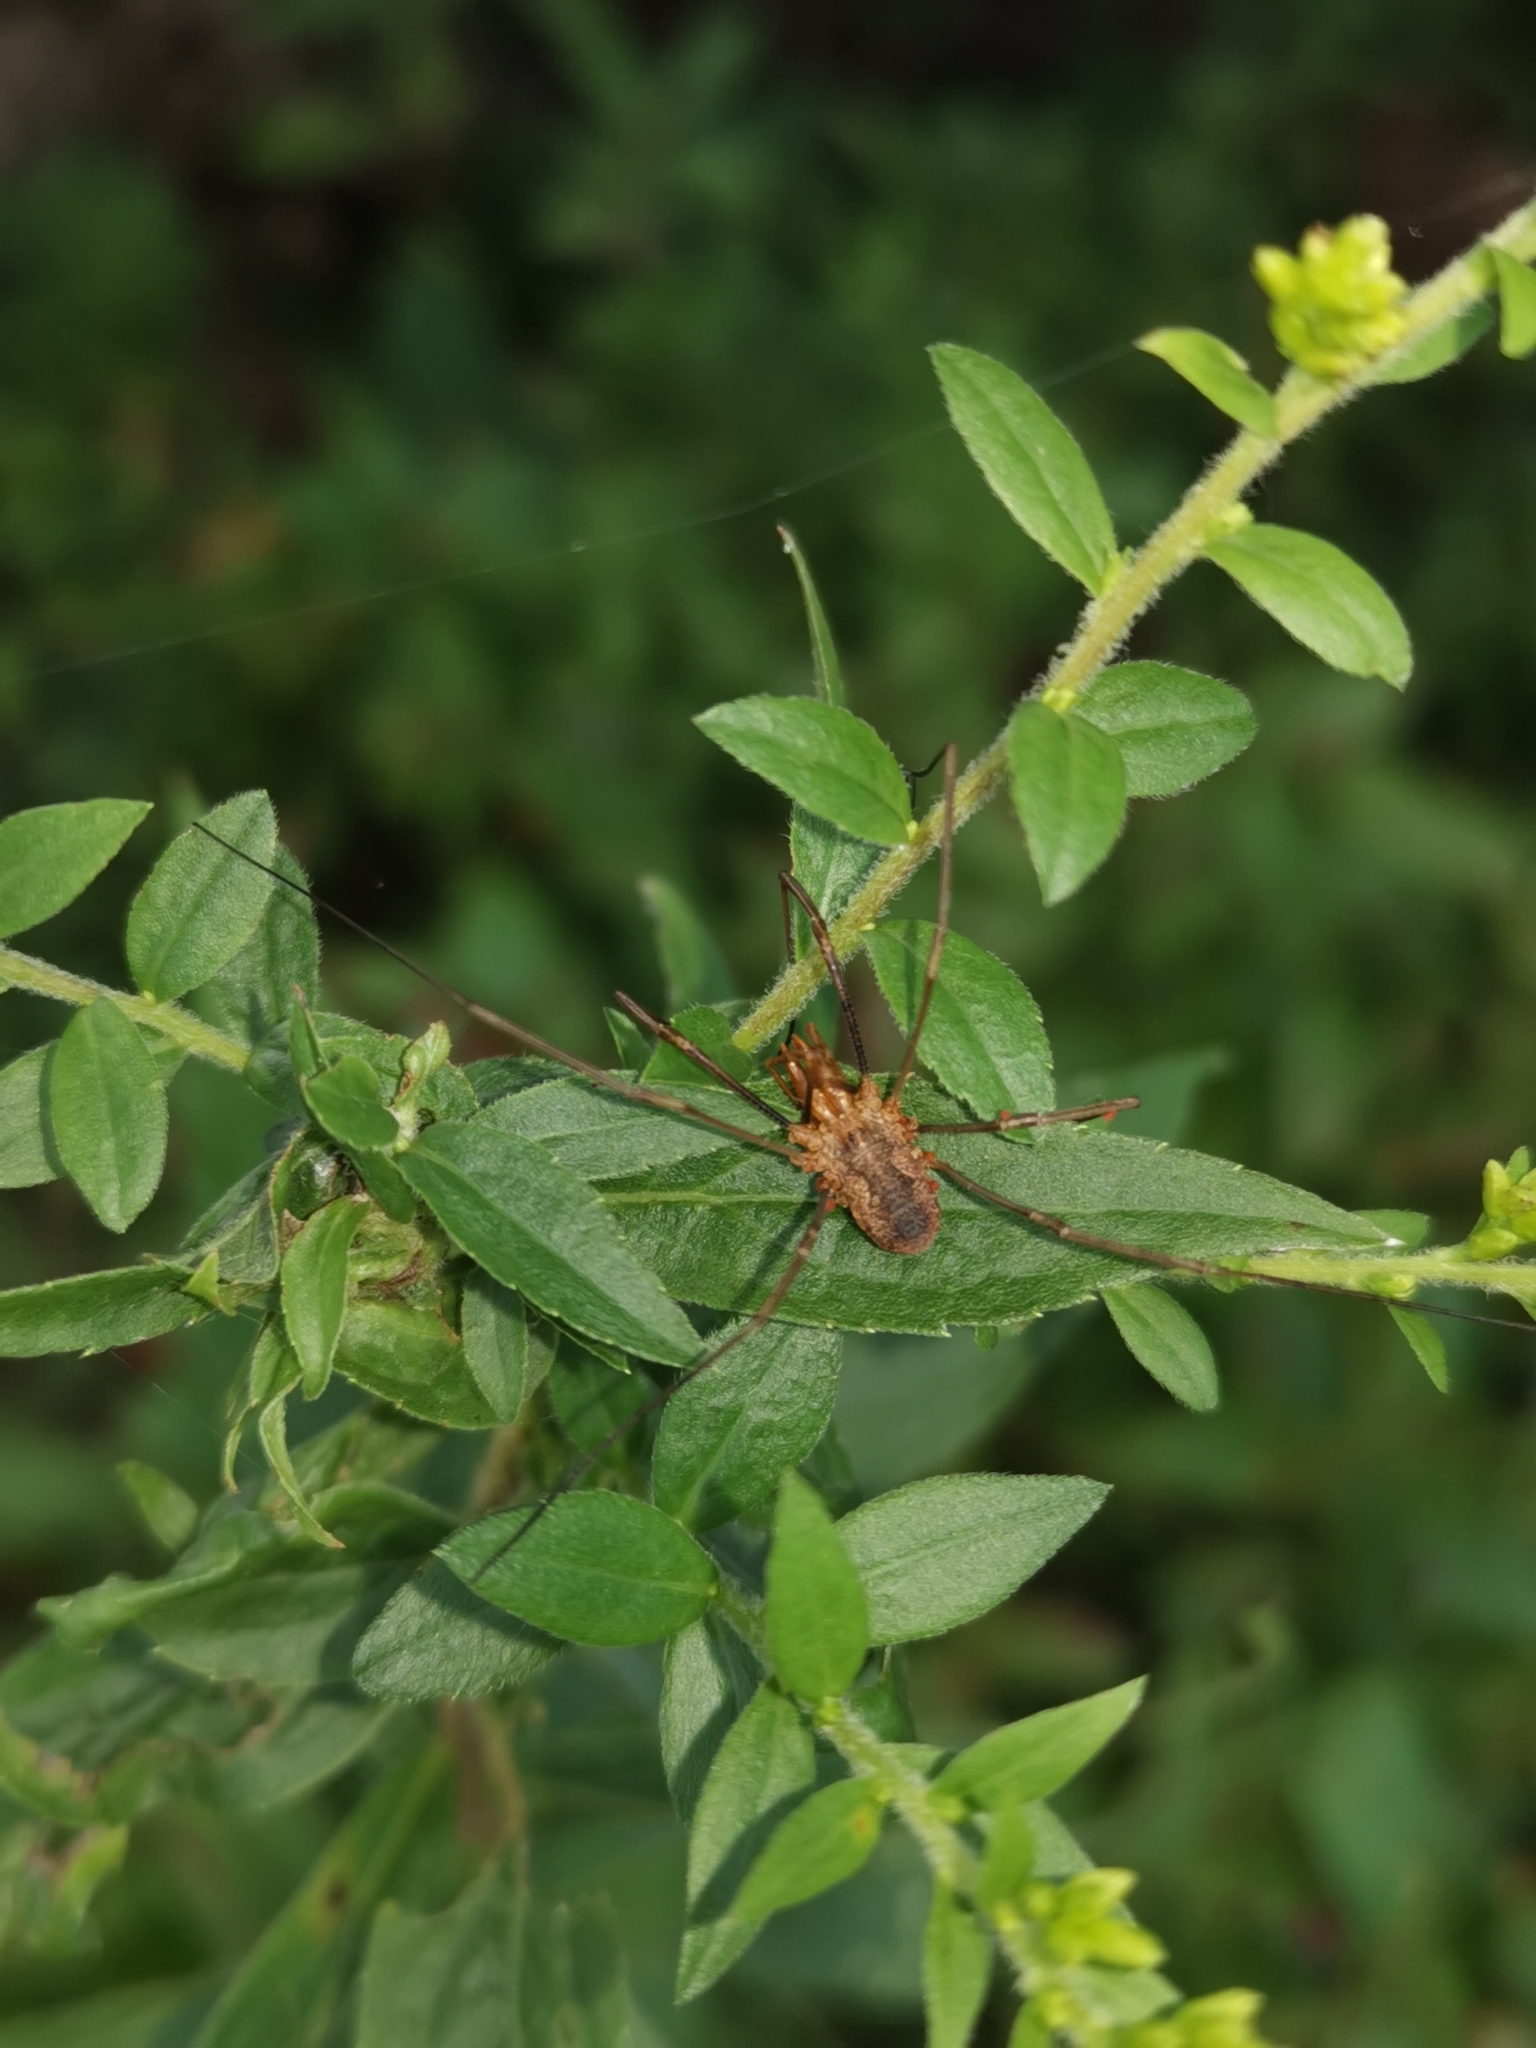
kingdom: Animalia
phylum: Arthropoda
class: Arachnida
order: Opiliones
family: Phalangiidae
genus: Phalangium
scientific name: Phalangium opilio
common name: Daddy longleg
